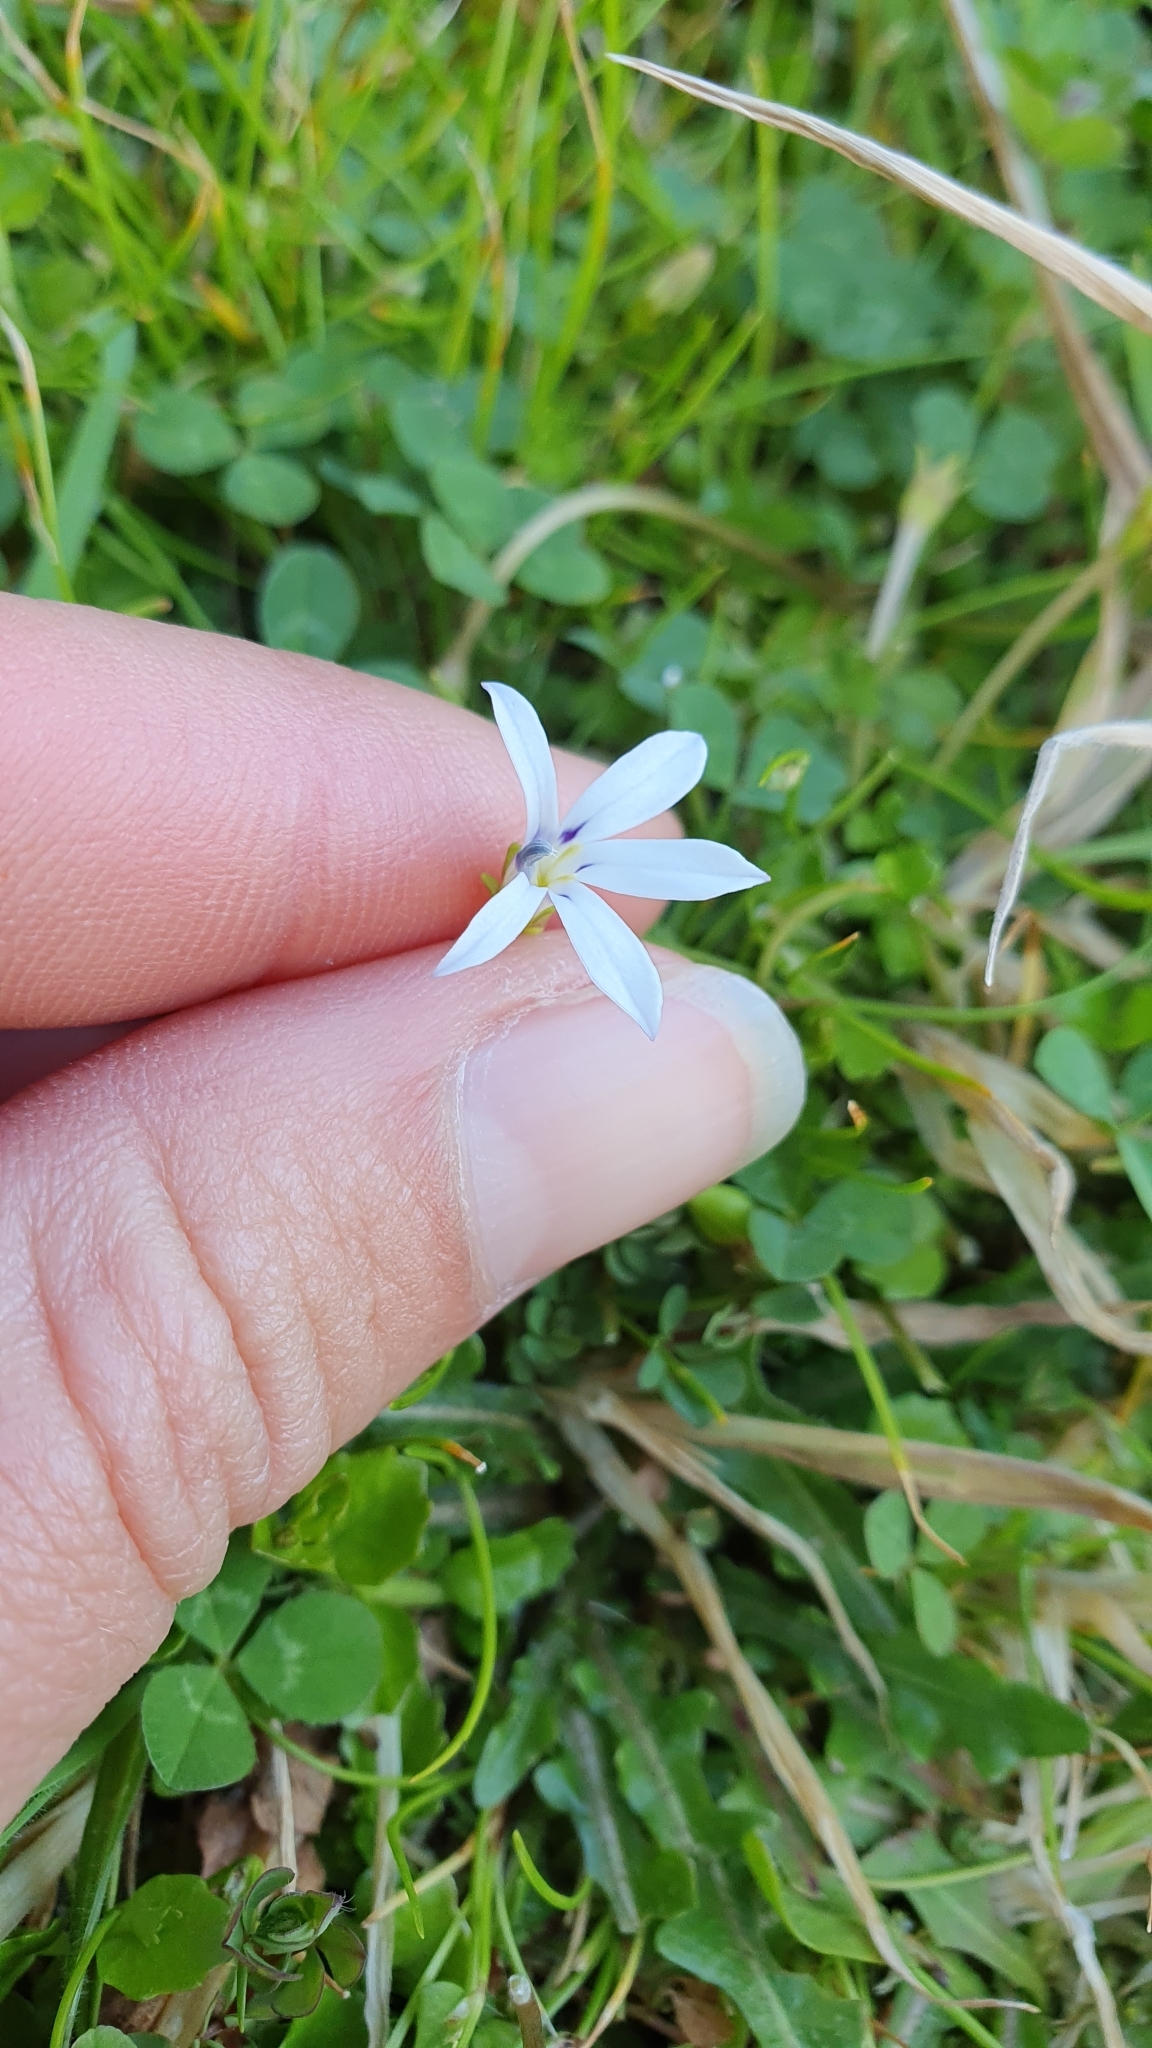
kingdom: Plantae
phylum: Tracheophyta
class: Magnoliopsida
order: Asterales
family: Campanulaceae
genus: Lobelia
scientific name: Lobelia angulata
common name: Lawn lobelia
